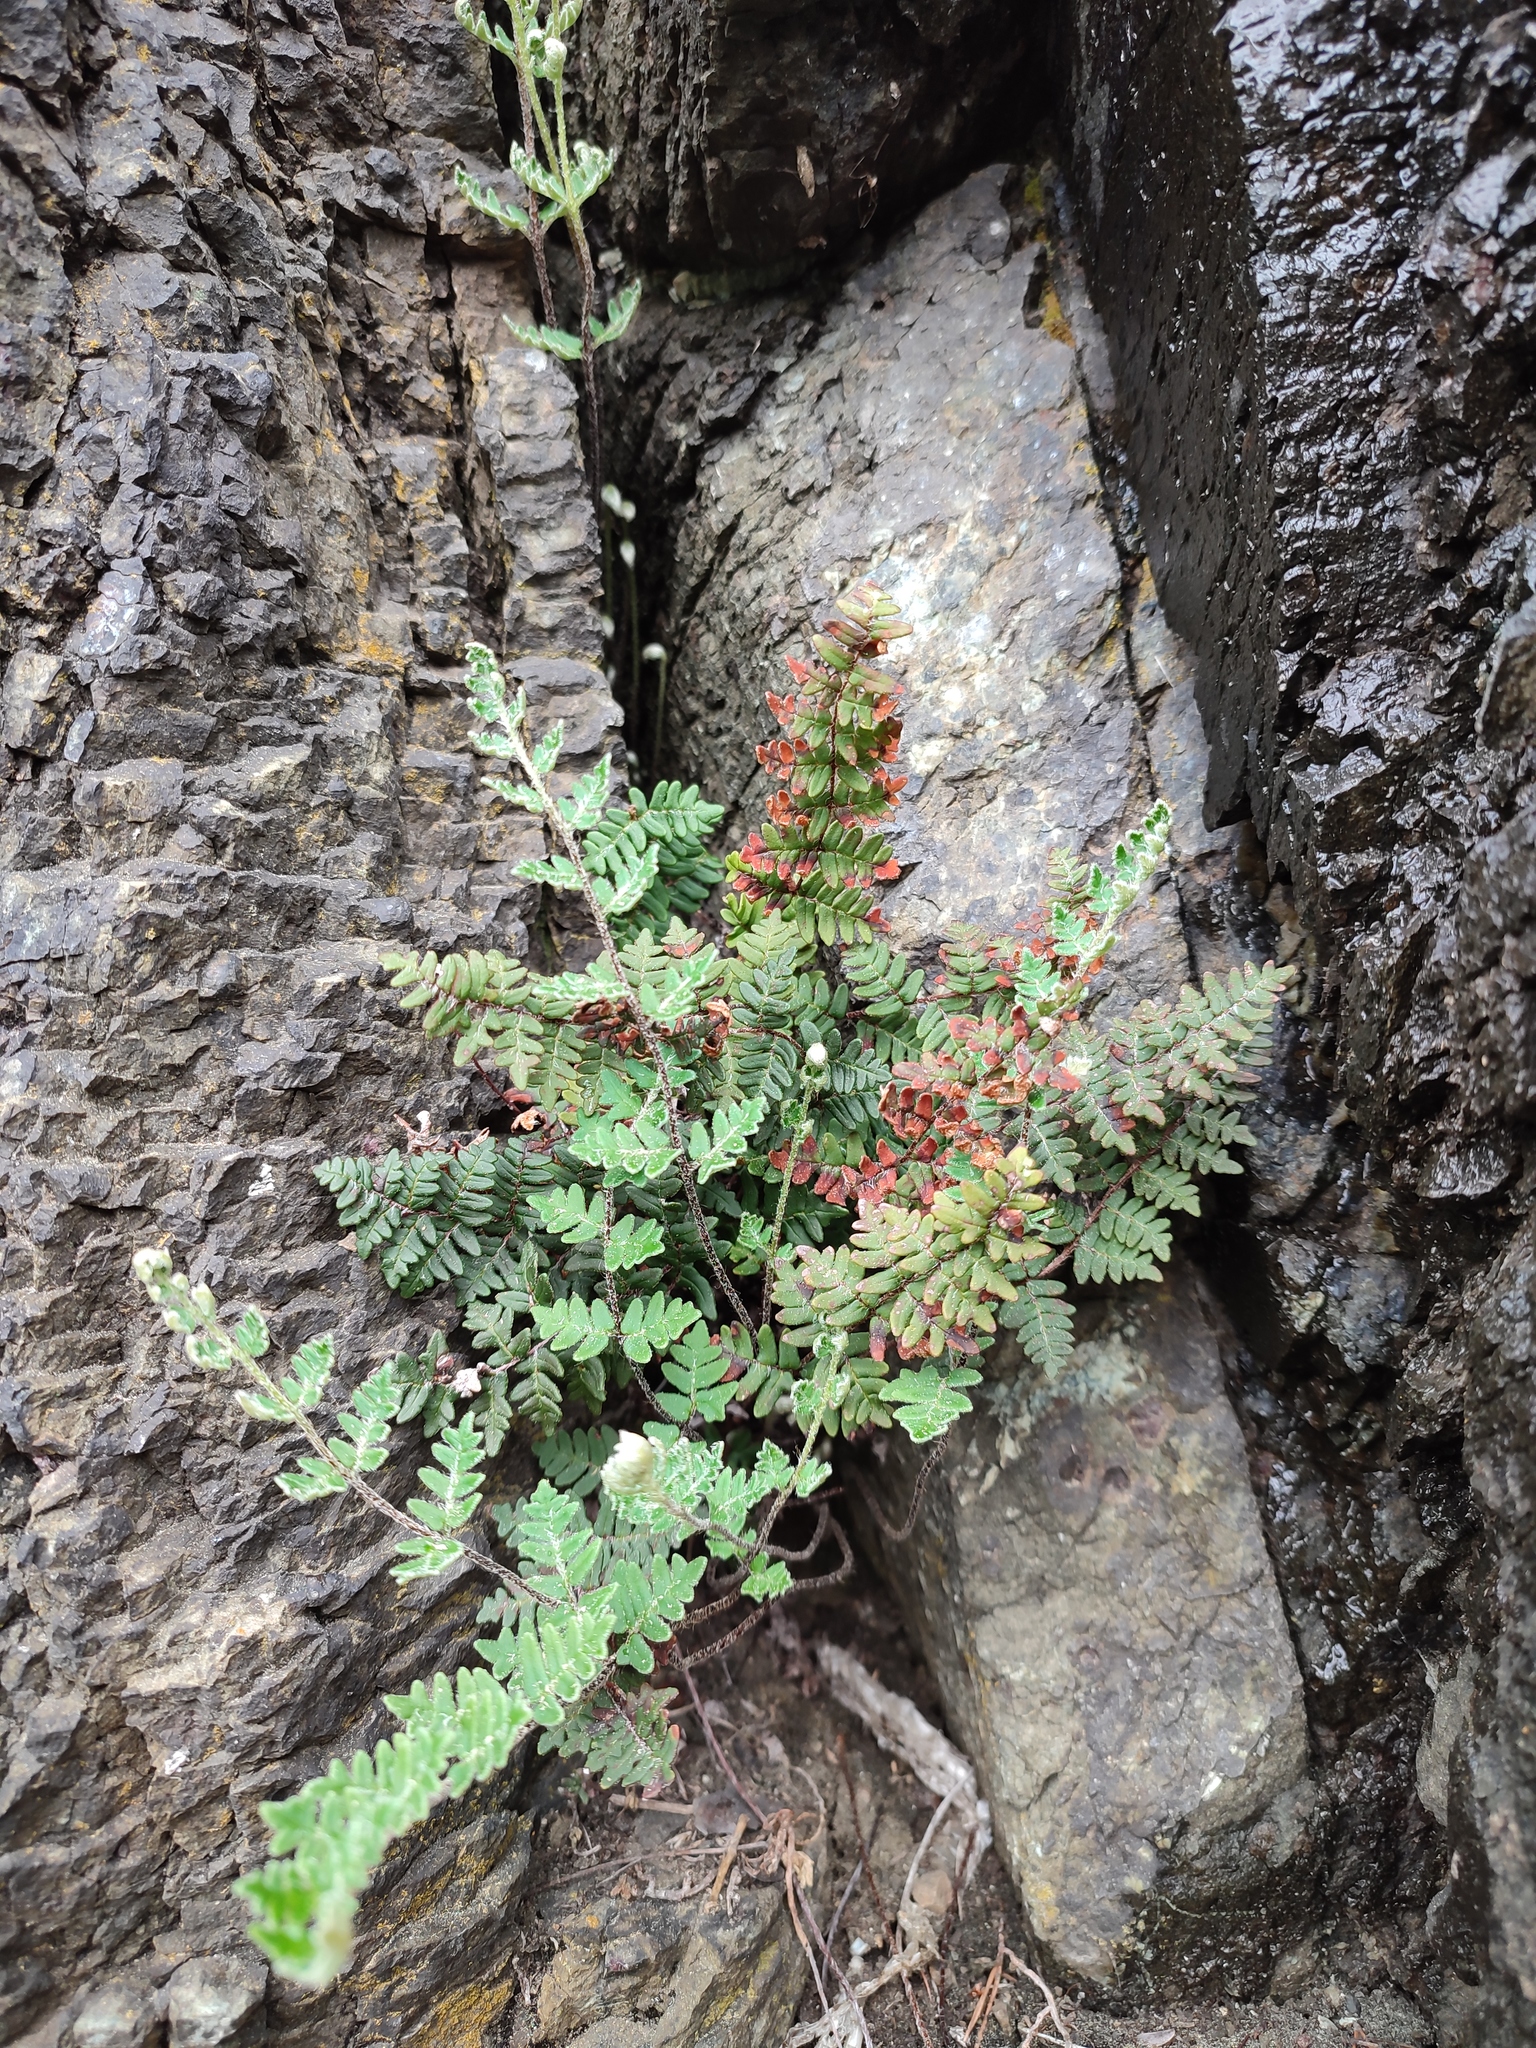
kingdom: Plantae
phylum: Tracheophyta
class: Polypodiopsida
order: Polypodiales
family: Pteridaceae
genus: Paragymnopteris
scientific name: Paragymnopteris marantae
